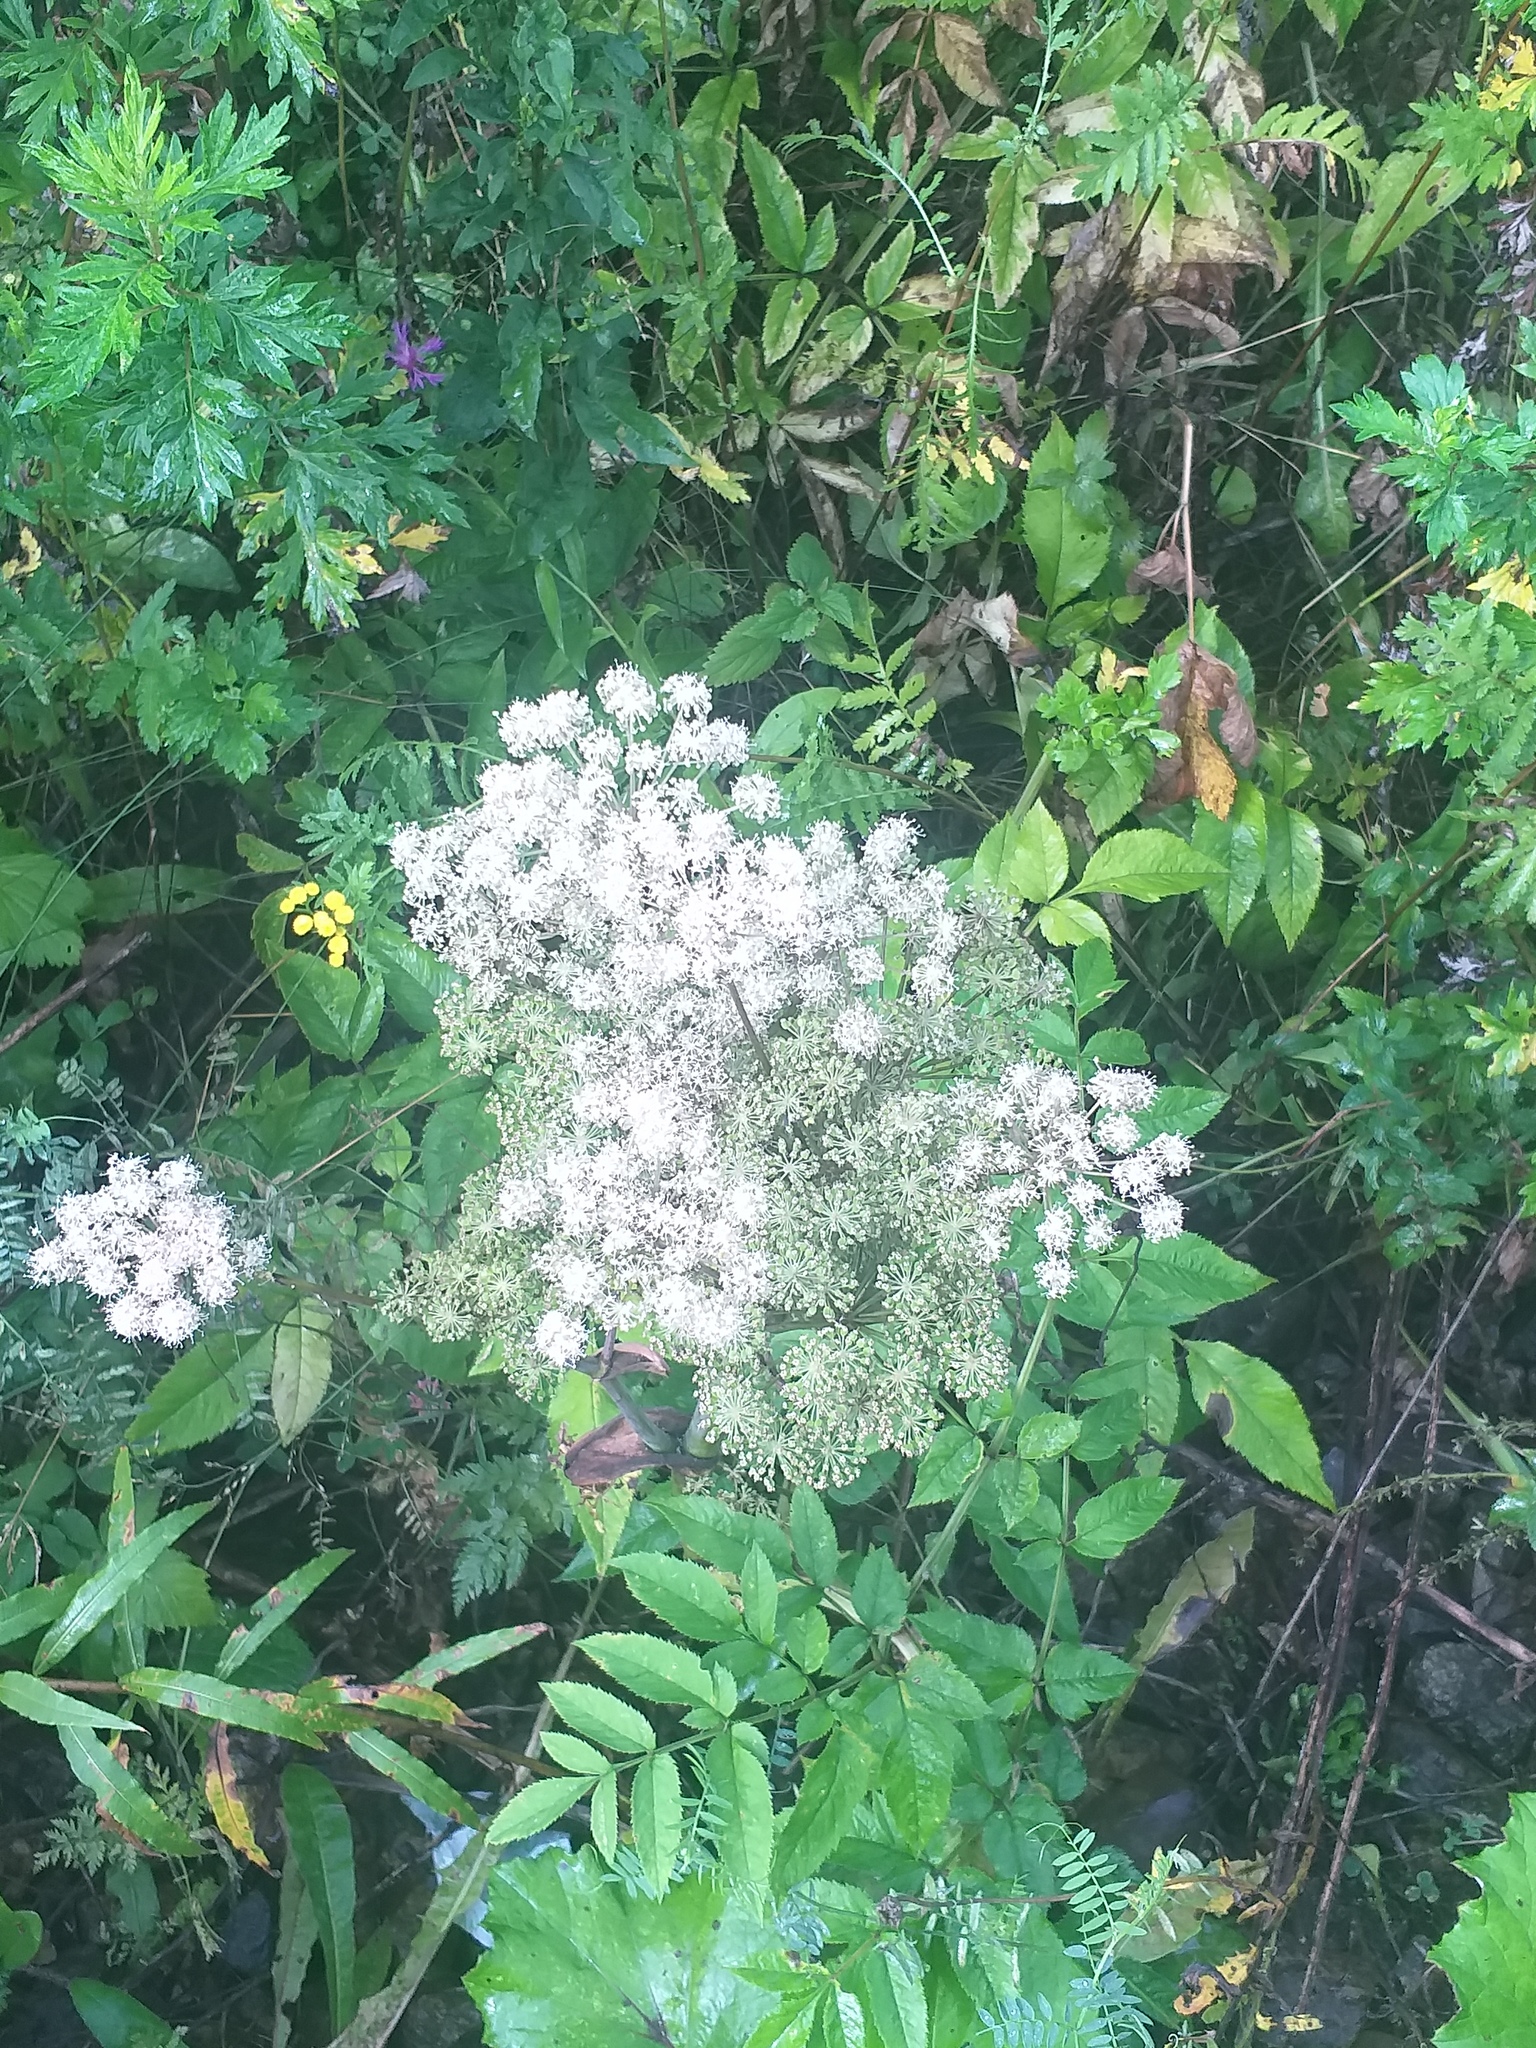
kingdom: Plantae
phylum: Tracheophyta
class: Magnoliopsida
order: Apiales
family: Apiaceae
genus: Angelica
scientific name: Angelica sylvestris
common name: Wild angelica
